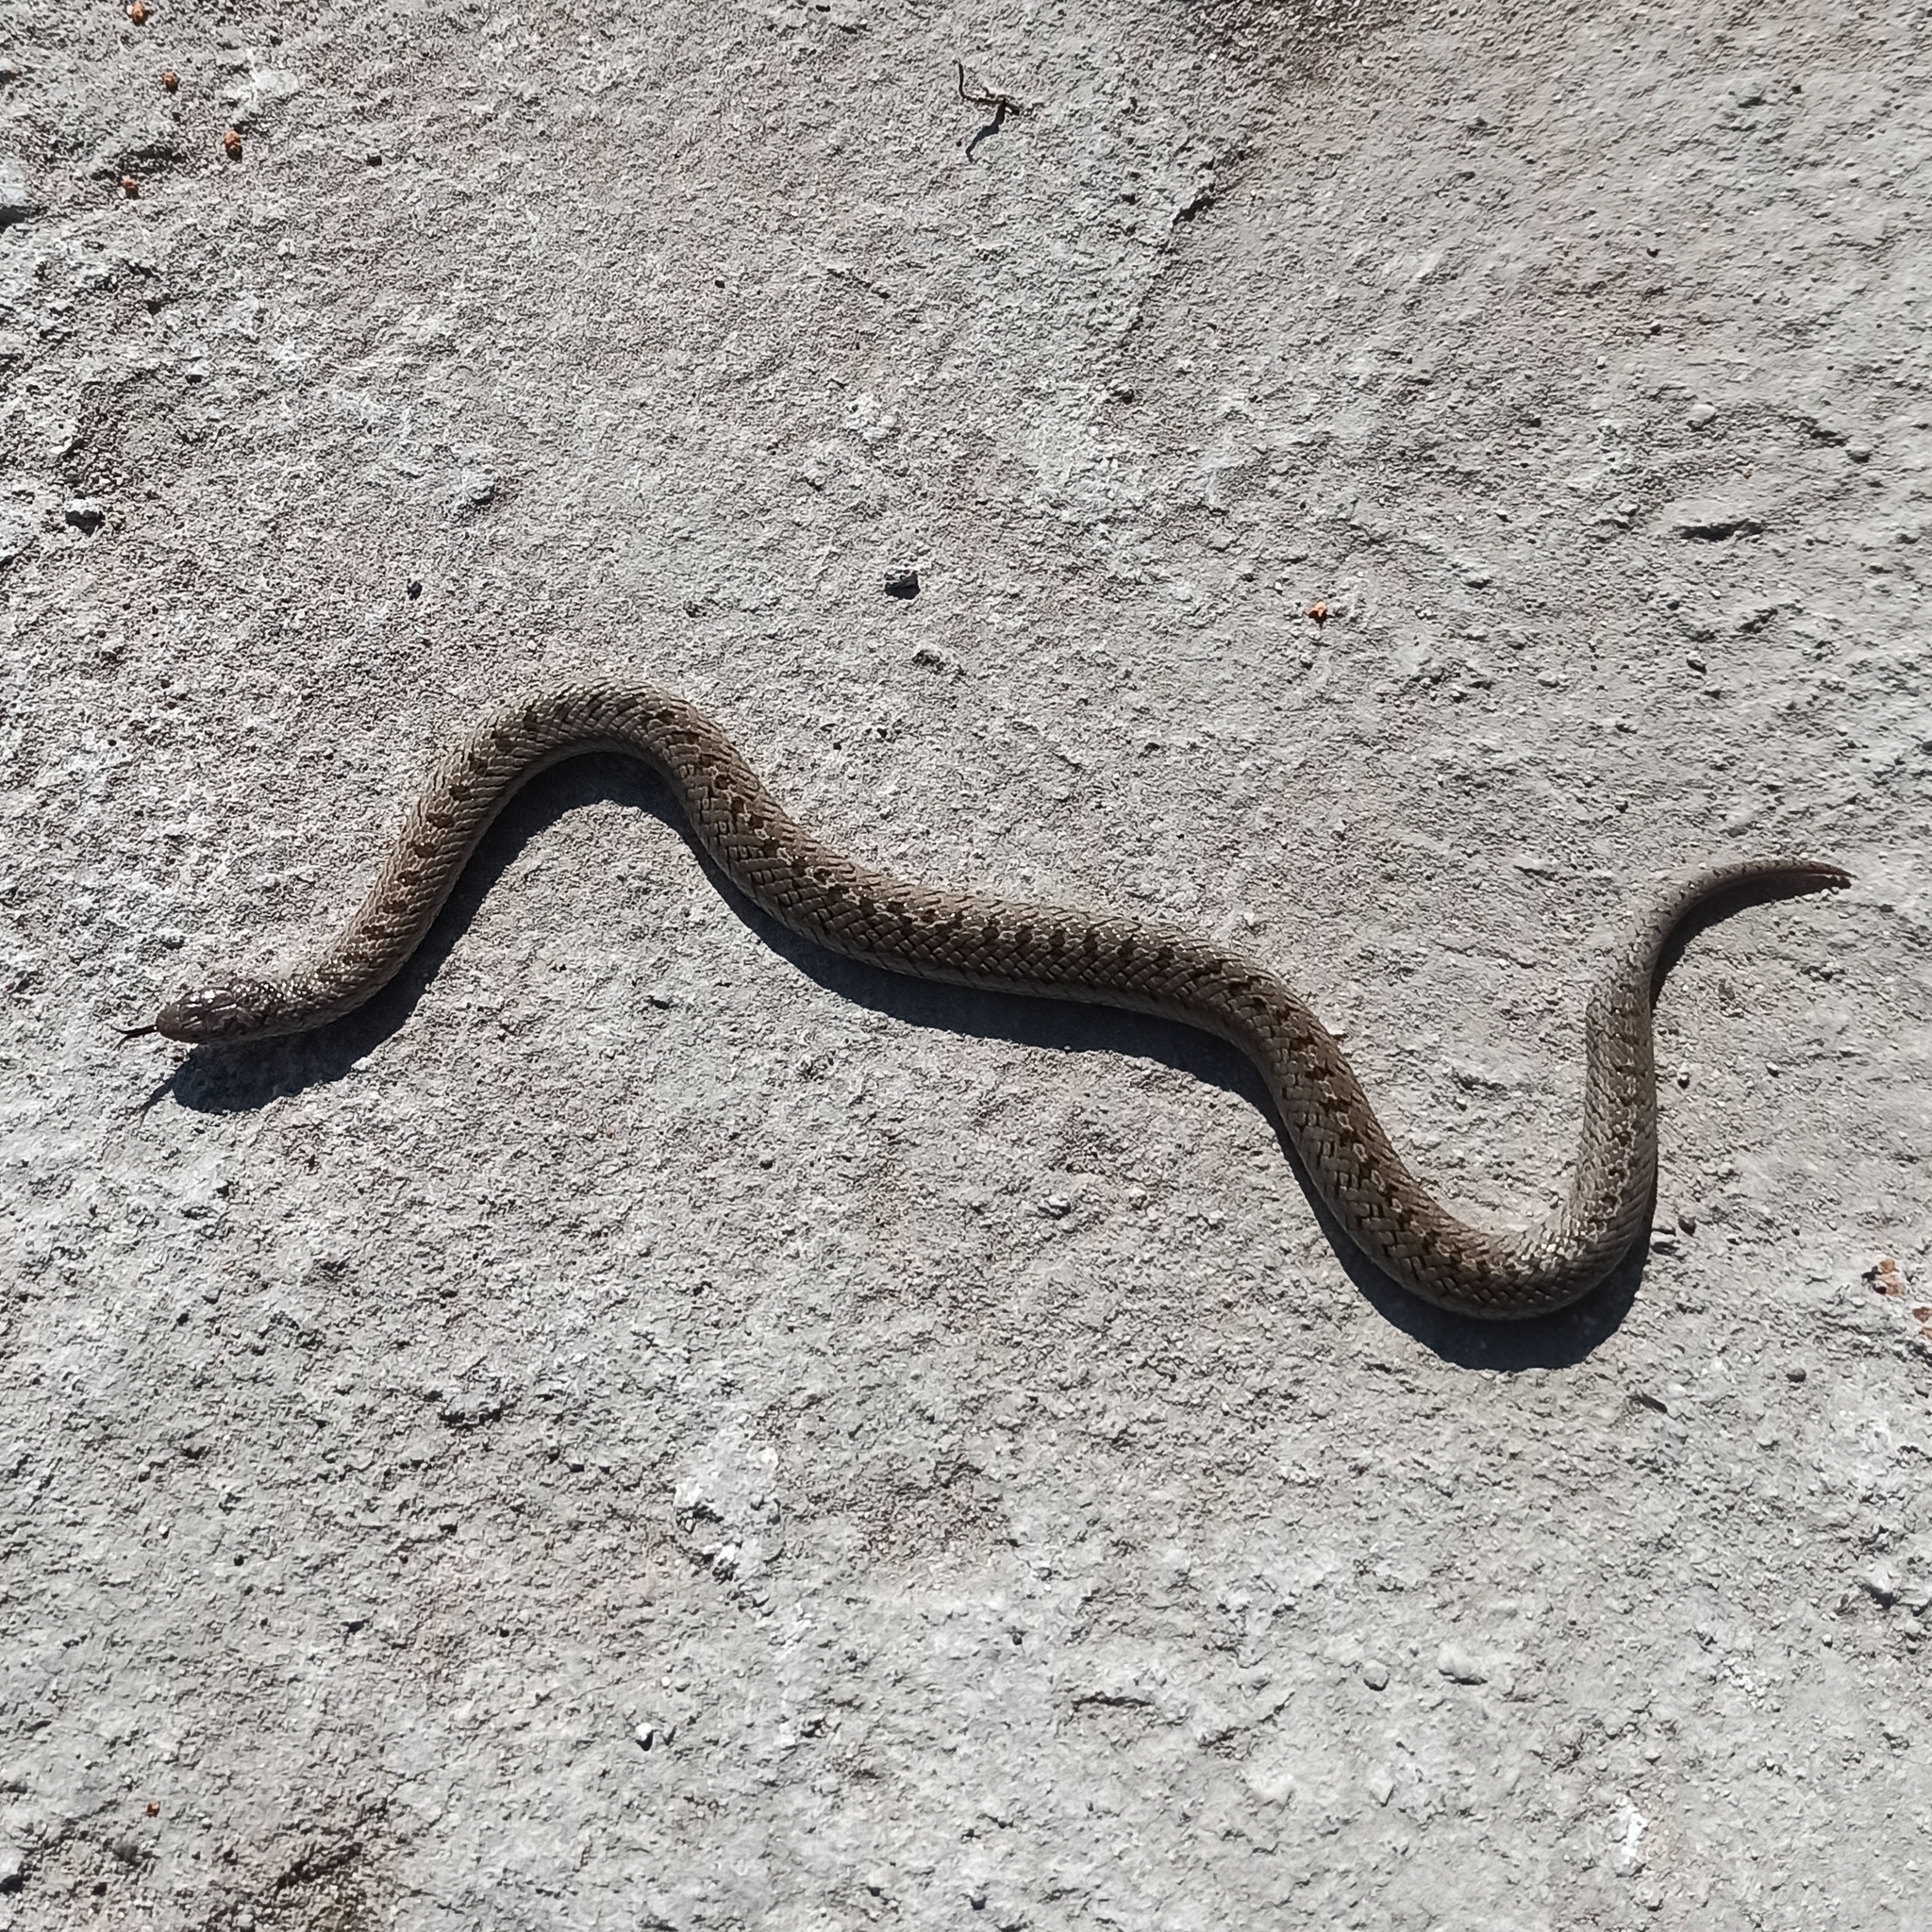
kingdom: Animalia
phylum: Chordata
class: Squamata
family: Colubridae
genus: Conopsis
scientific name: Conopsis nasus
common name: Largenose earth snake
